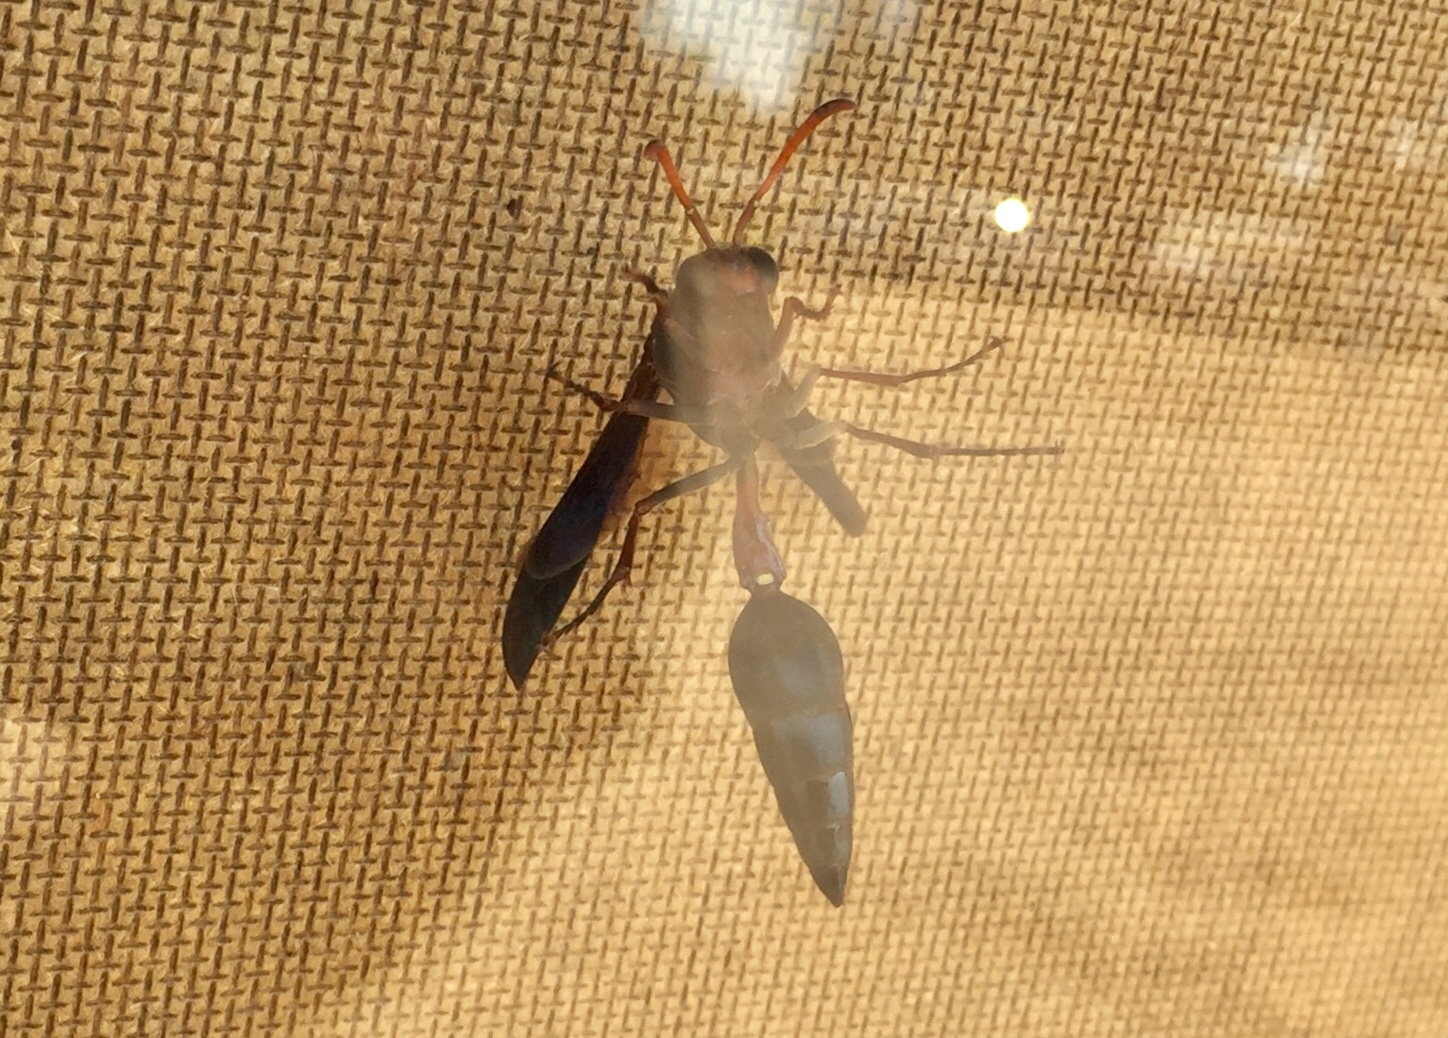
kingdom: Animalia
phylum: Arthropoda
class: Insecta
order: Hymenoptera
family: Eumenidae
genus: Delta
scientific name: Delta emarginatum
